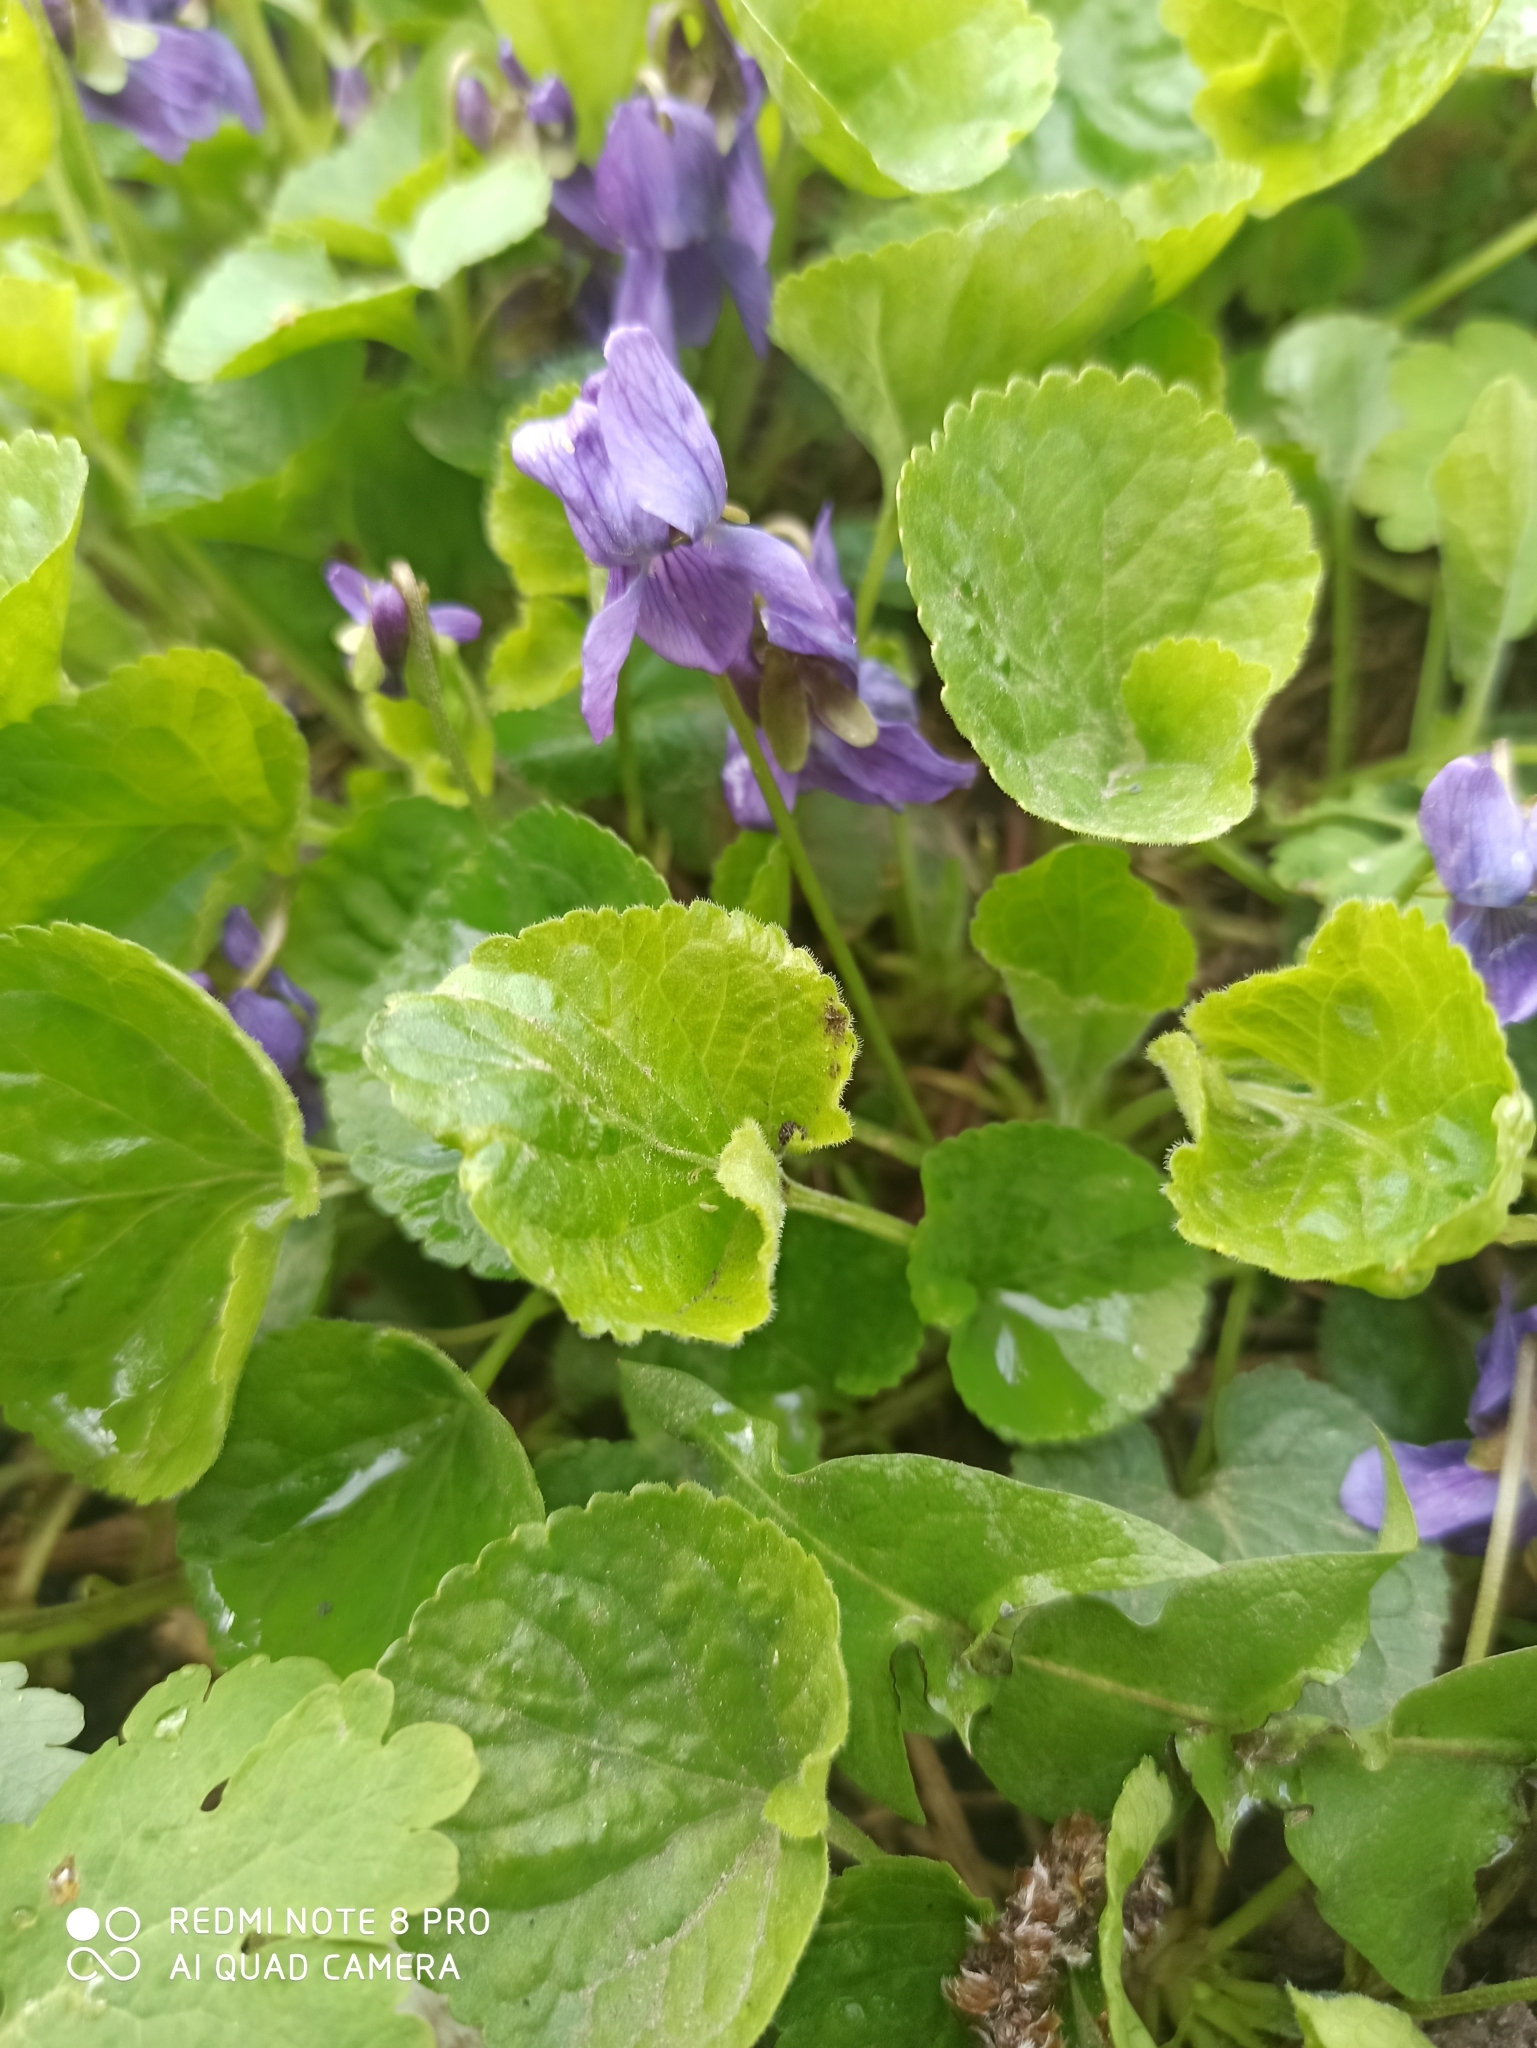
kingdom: Plantae
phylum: Tracheophyta
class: Magnoliopsida
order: Malpighiales
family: Violaceae
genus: Viola
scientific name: Viola odorata
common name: Sweet violet
